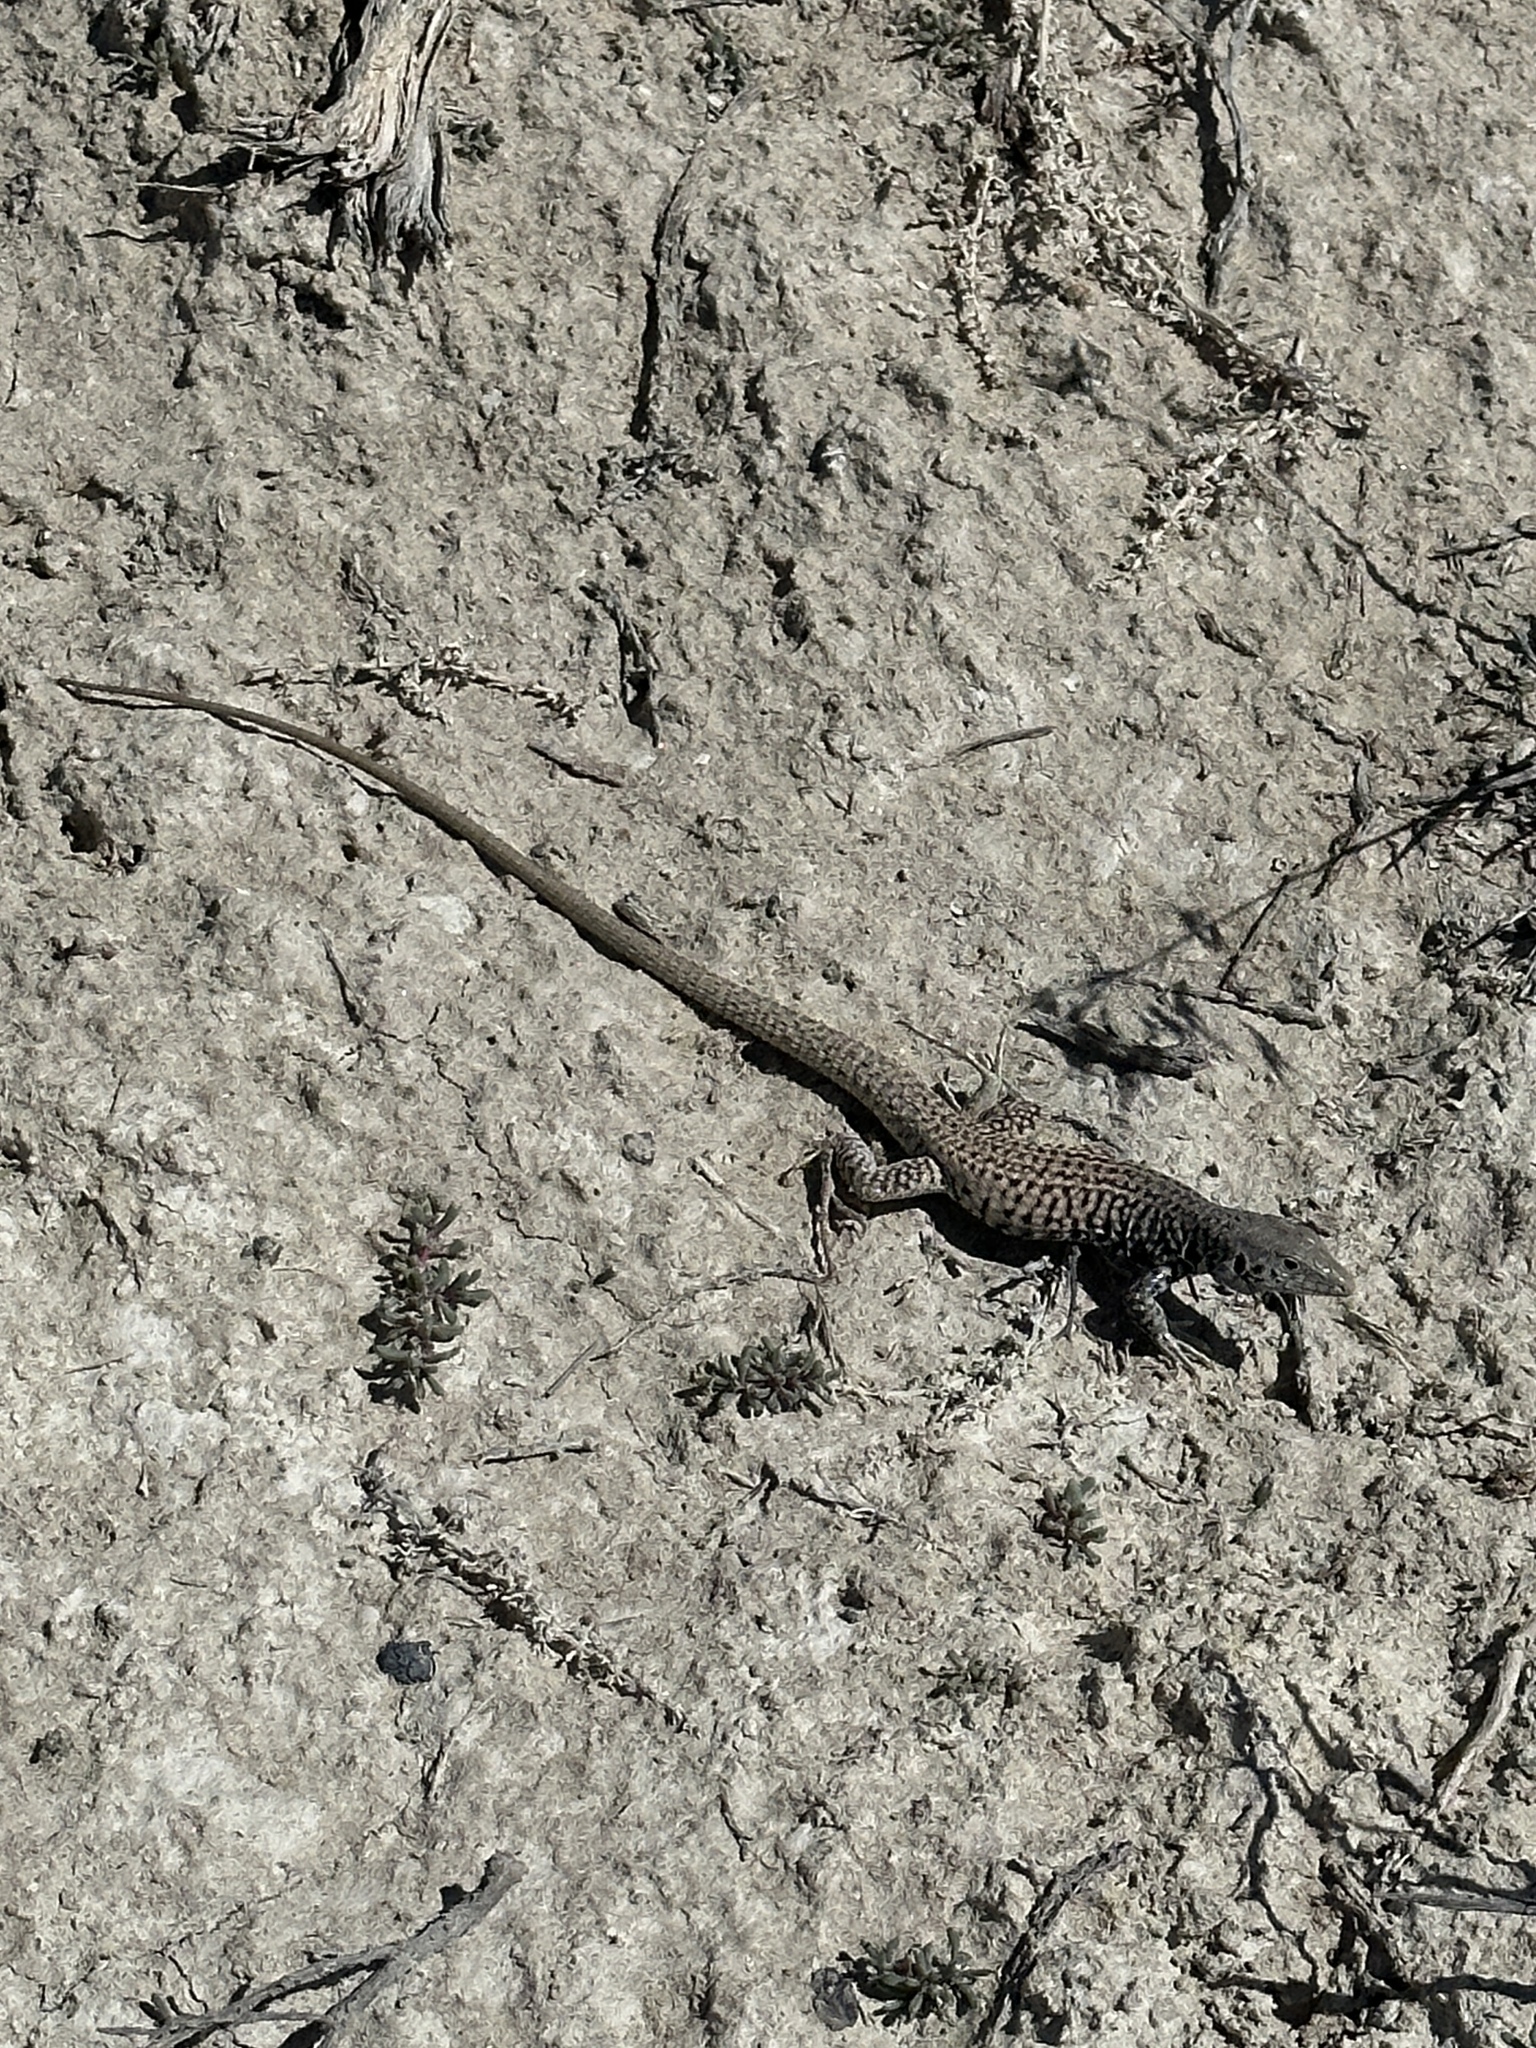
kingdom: Animalia
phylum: Chordata
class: Squamata
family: Teiidae
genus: Aspidoscelis
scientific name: Aspidoscelis tigris
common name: Tiger whiptail
